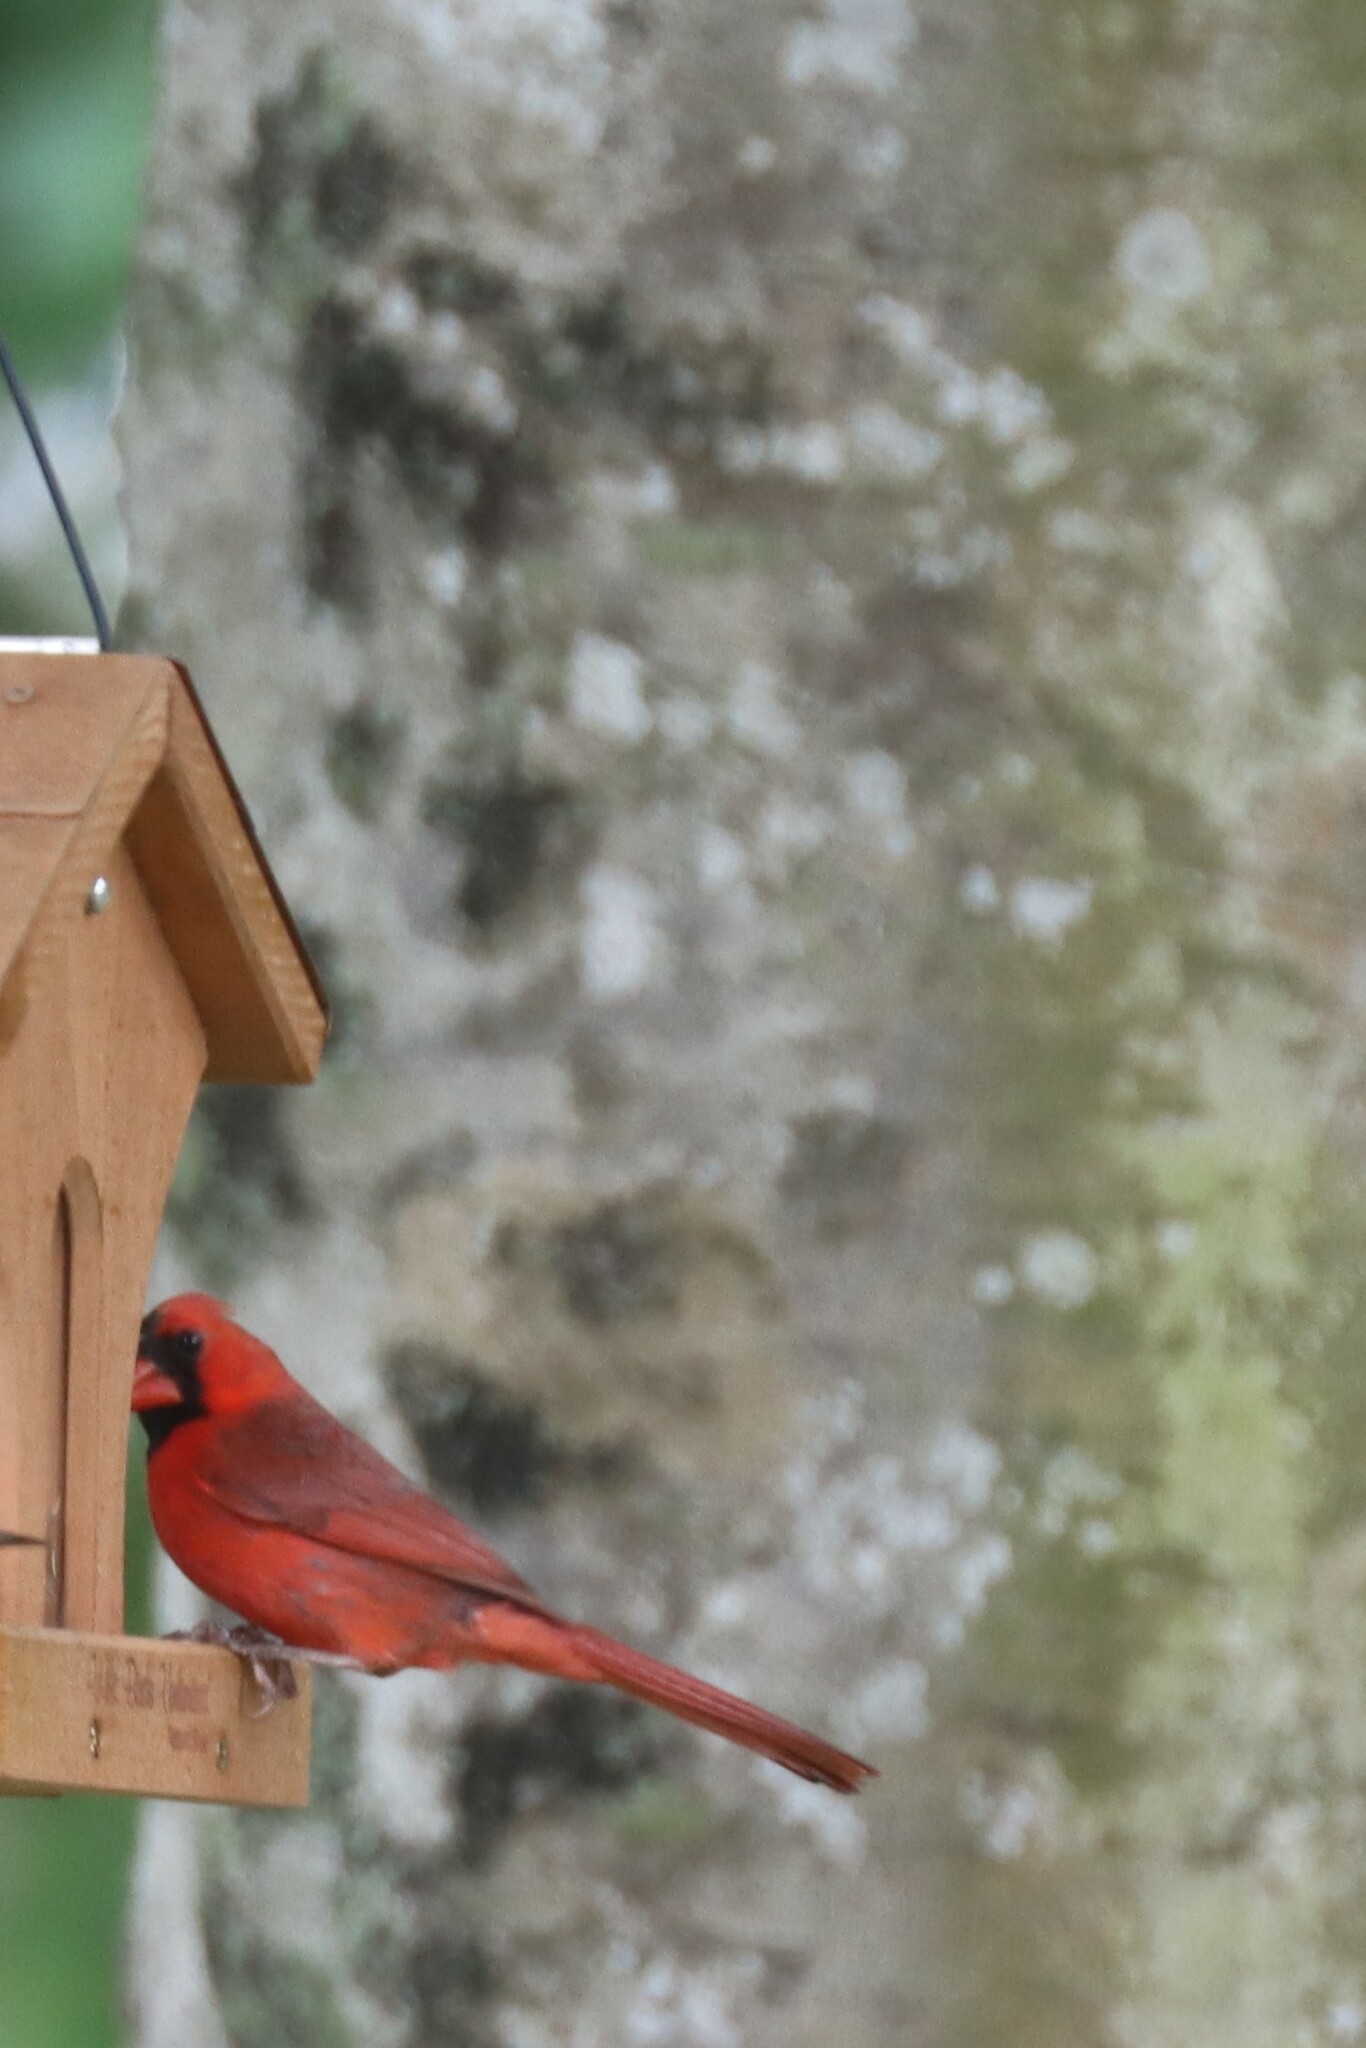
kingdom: Animalia
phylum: Chordata
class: Aves
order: Passeriformes
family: Cardinalidae
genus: Cardinalis
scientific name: Cardinalis cardinalis
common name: Northern cardinal
